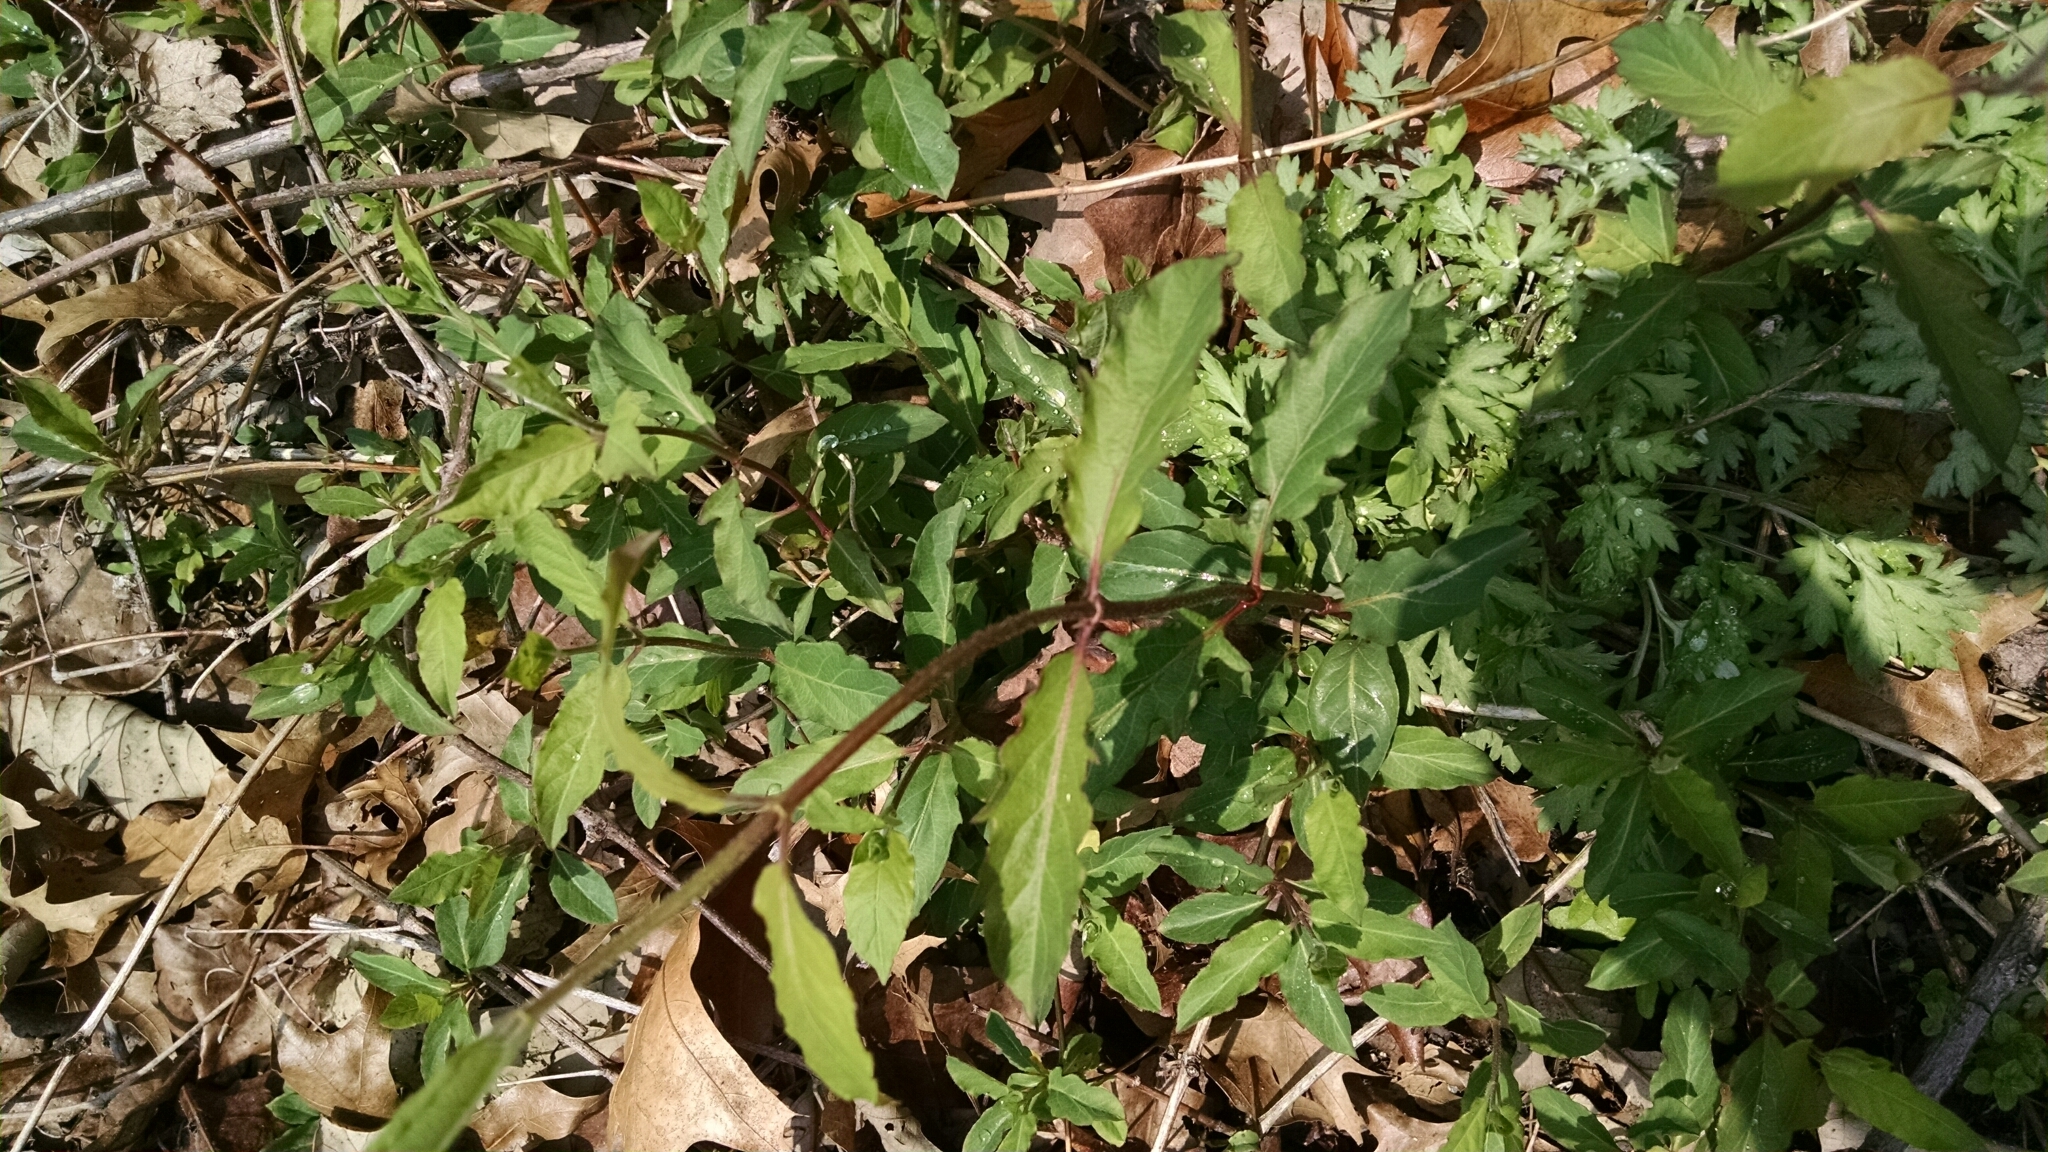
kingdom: Plantae
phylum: Tracheophyta
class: Magnoliopsida
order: Dipsacales
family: Caprifoliaceae
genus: Lonicera
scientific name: Lonicera japonica
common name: Japanese honeysuckle
